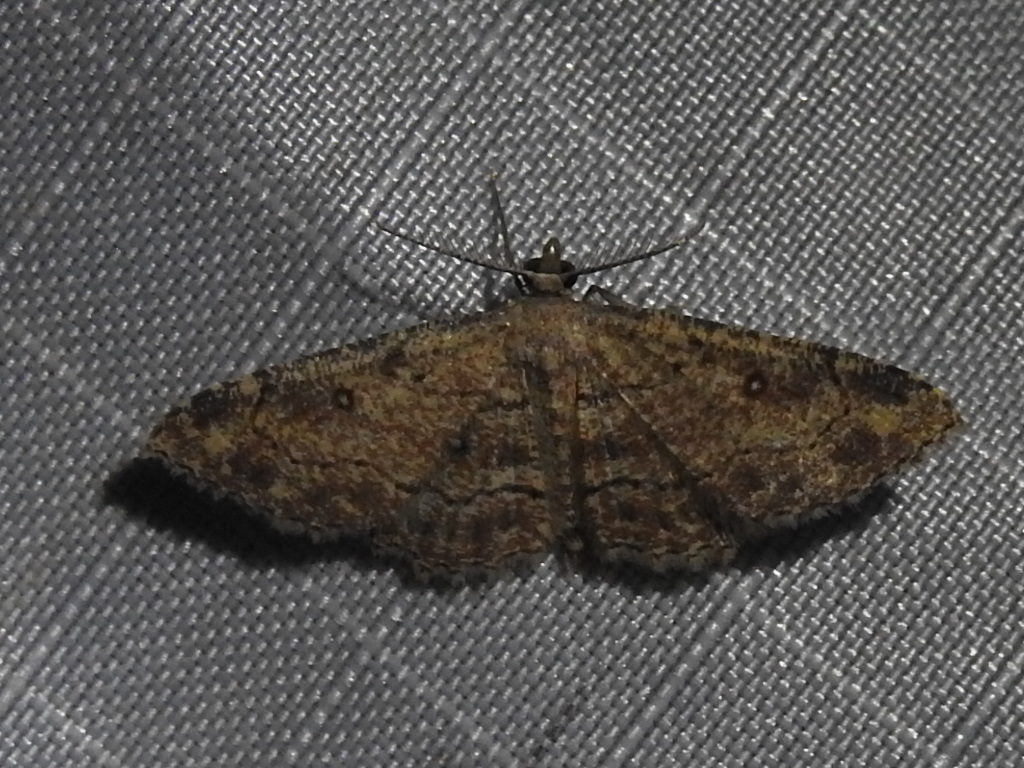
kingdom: Animalia
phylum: Arthropoda
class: Insecta
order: Lepidoptera
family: Geometridae
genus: Cyclophora
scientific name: Cyclophora nanaria
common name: Cankerworm
